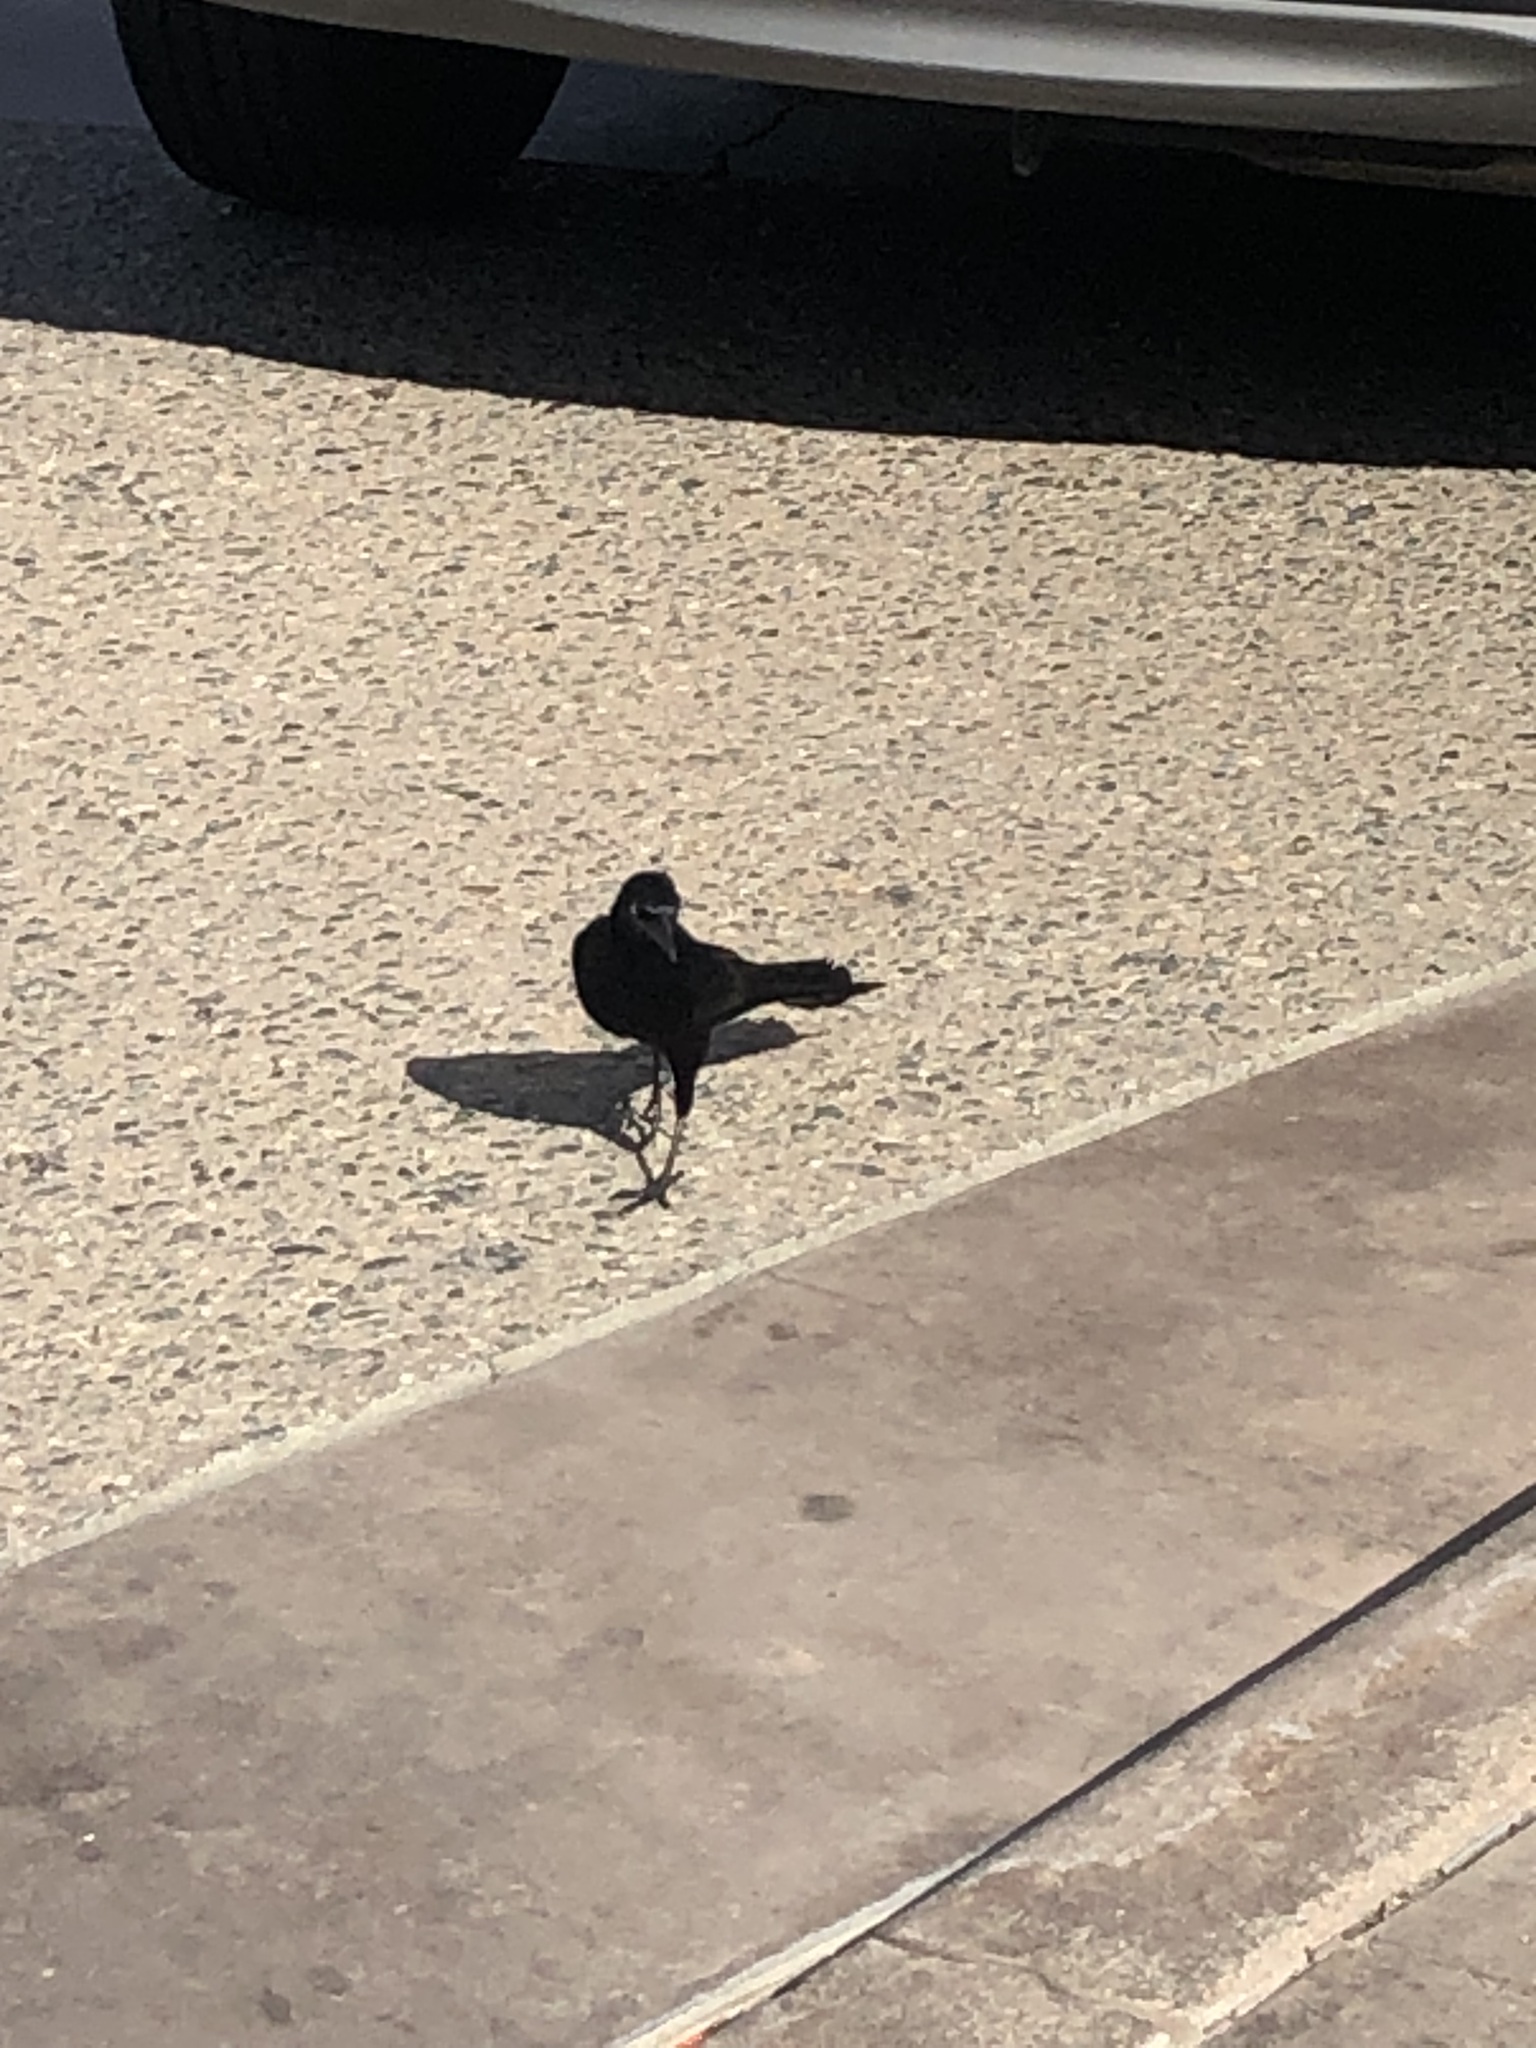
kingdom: Animalia
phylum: Chordata
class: Aves
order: Passeriformes
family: Icteridae
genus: Quiscalus
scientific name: Quiscalus mexicanus
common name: Great-tailed grackle
